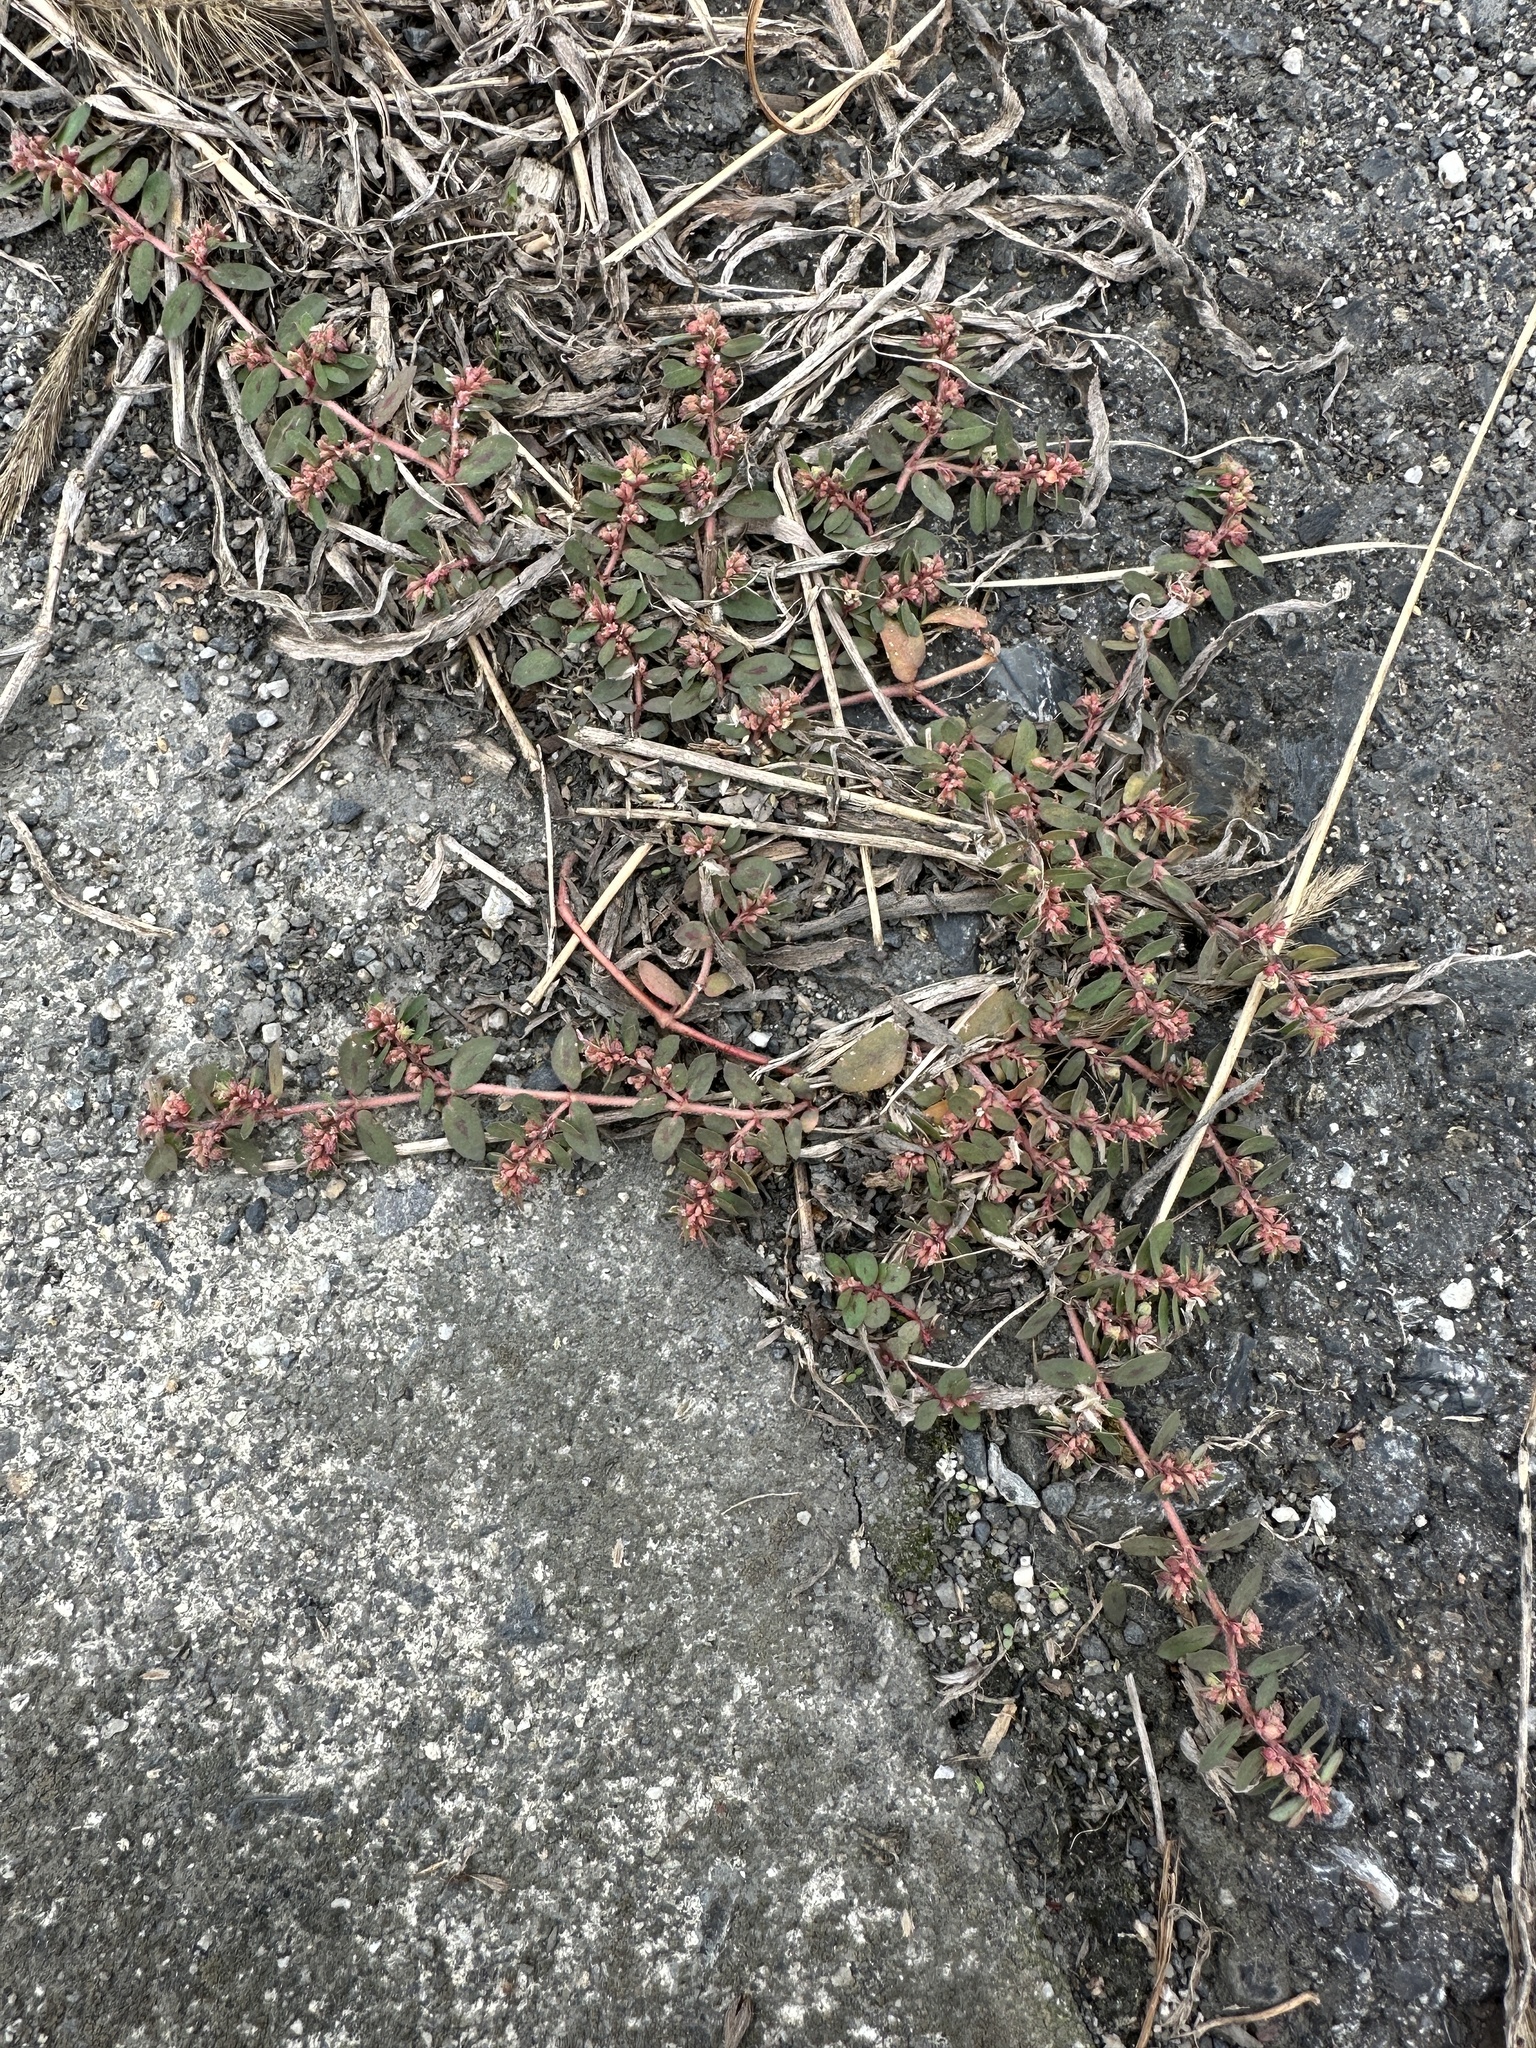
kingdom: Plantae
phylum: Tracheophyta
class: Magnoliopsida
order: Malpighiales
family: Euphorbiaceae
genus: Euphorbia
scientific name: Euphorbia maculata
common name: Spotted spurge
